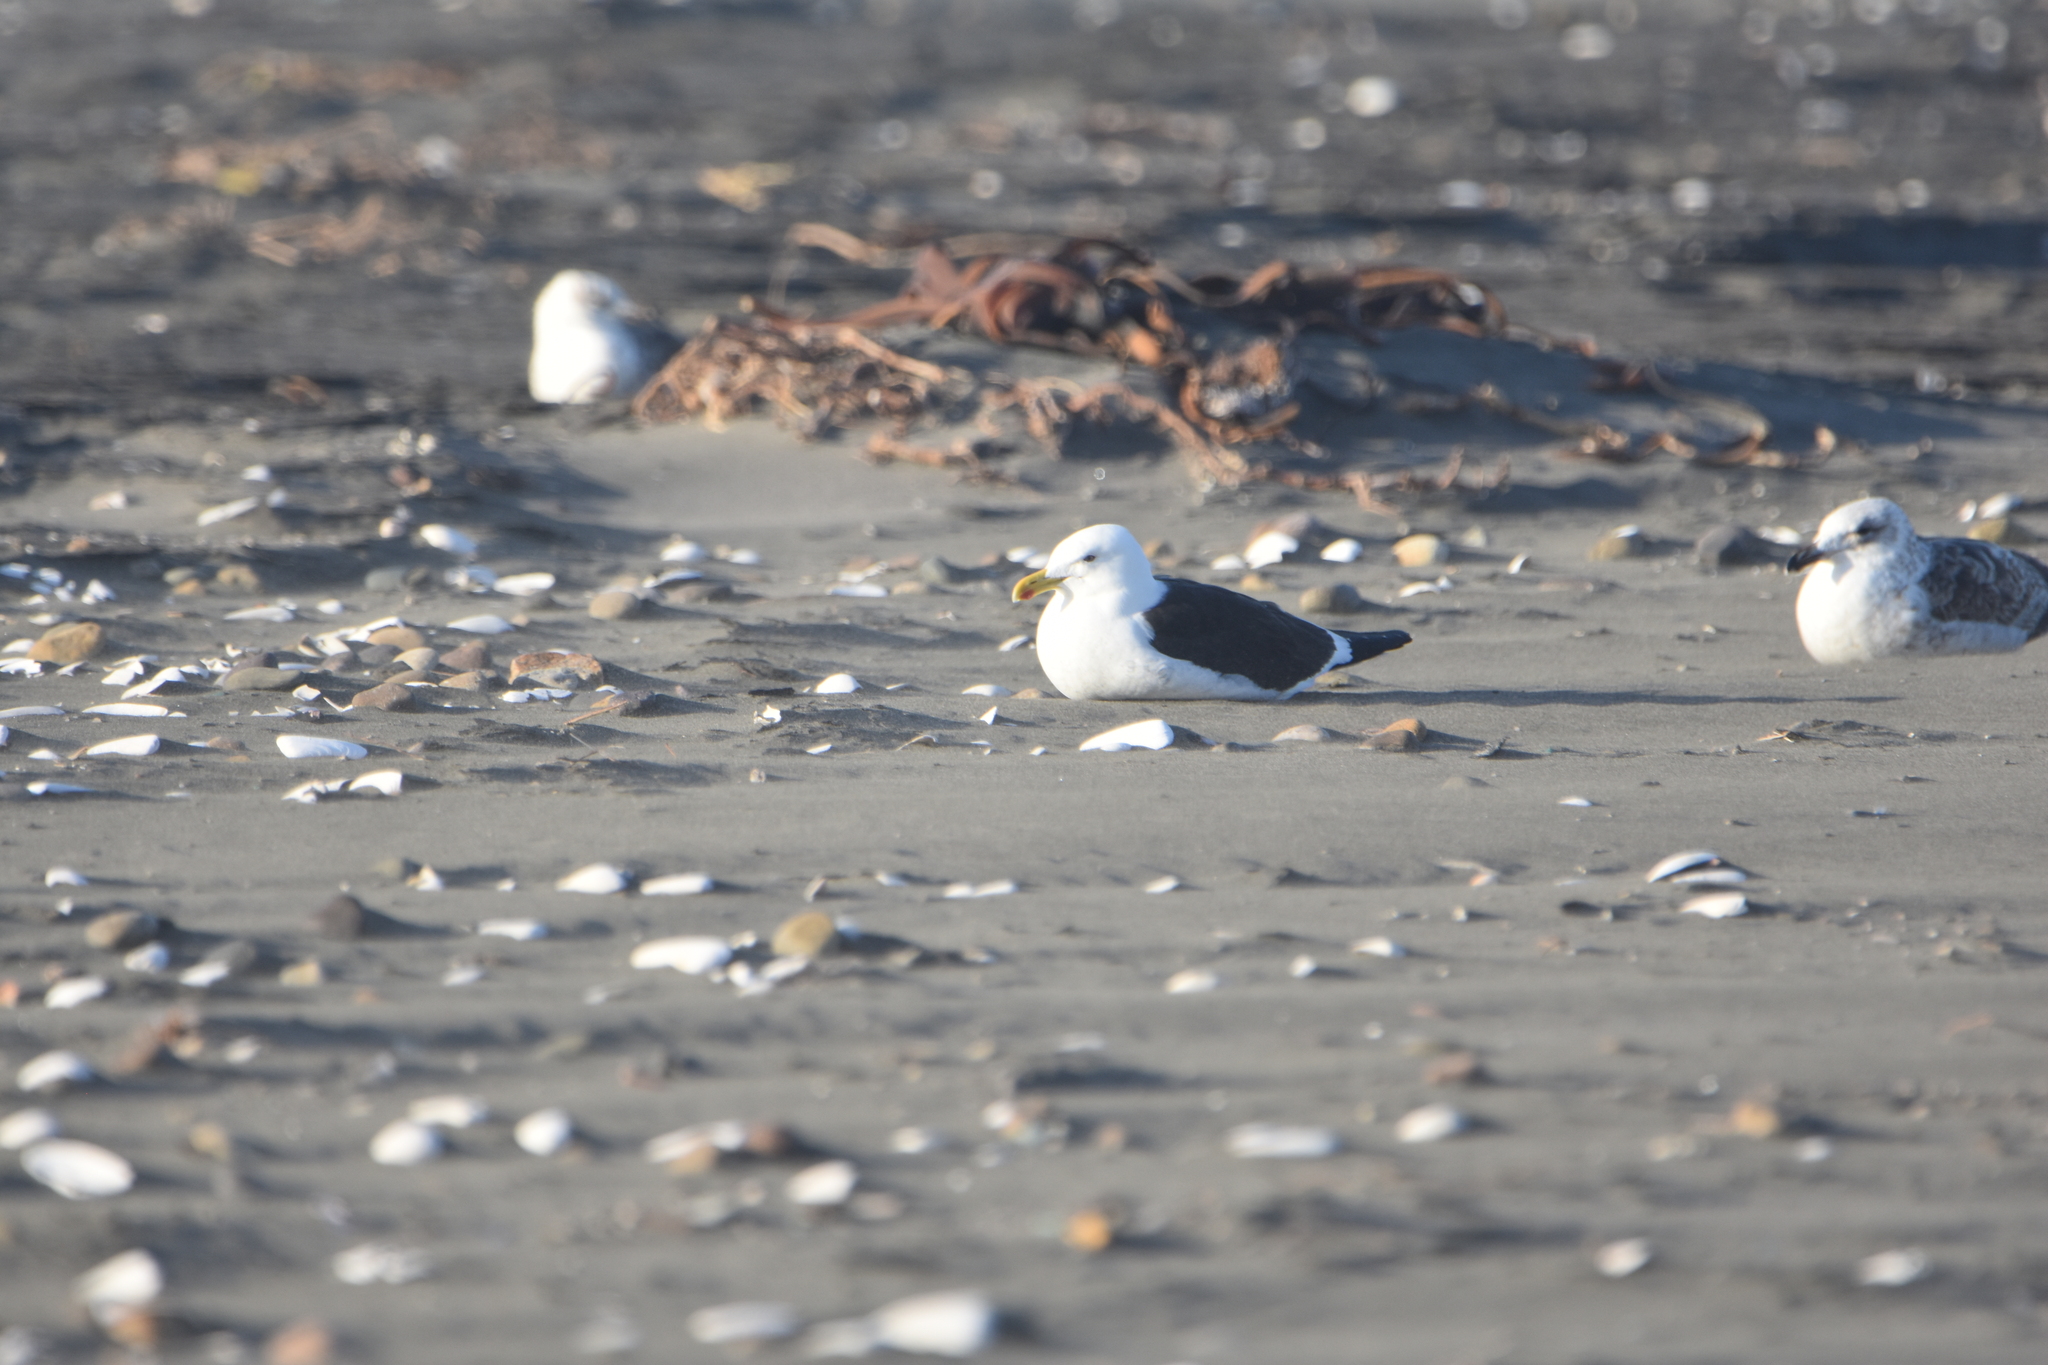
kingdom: Animalia
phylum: Chordata
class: Aves
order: Charadriiformes
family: Laridae
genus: Larus
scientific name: Larus dominicanus
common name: Kelp gull
